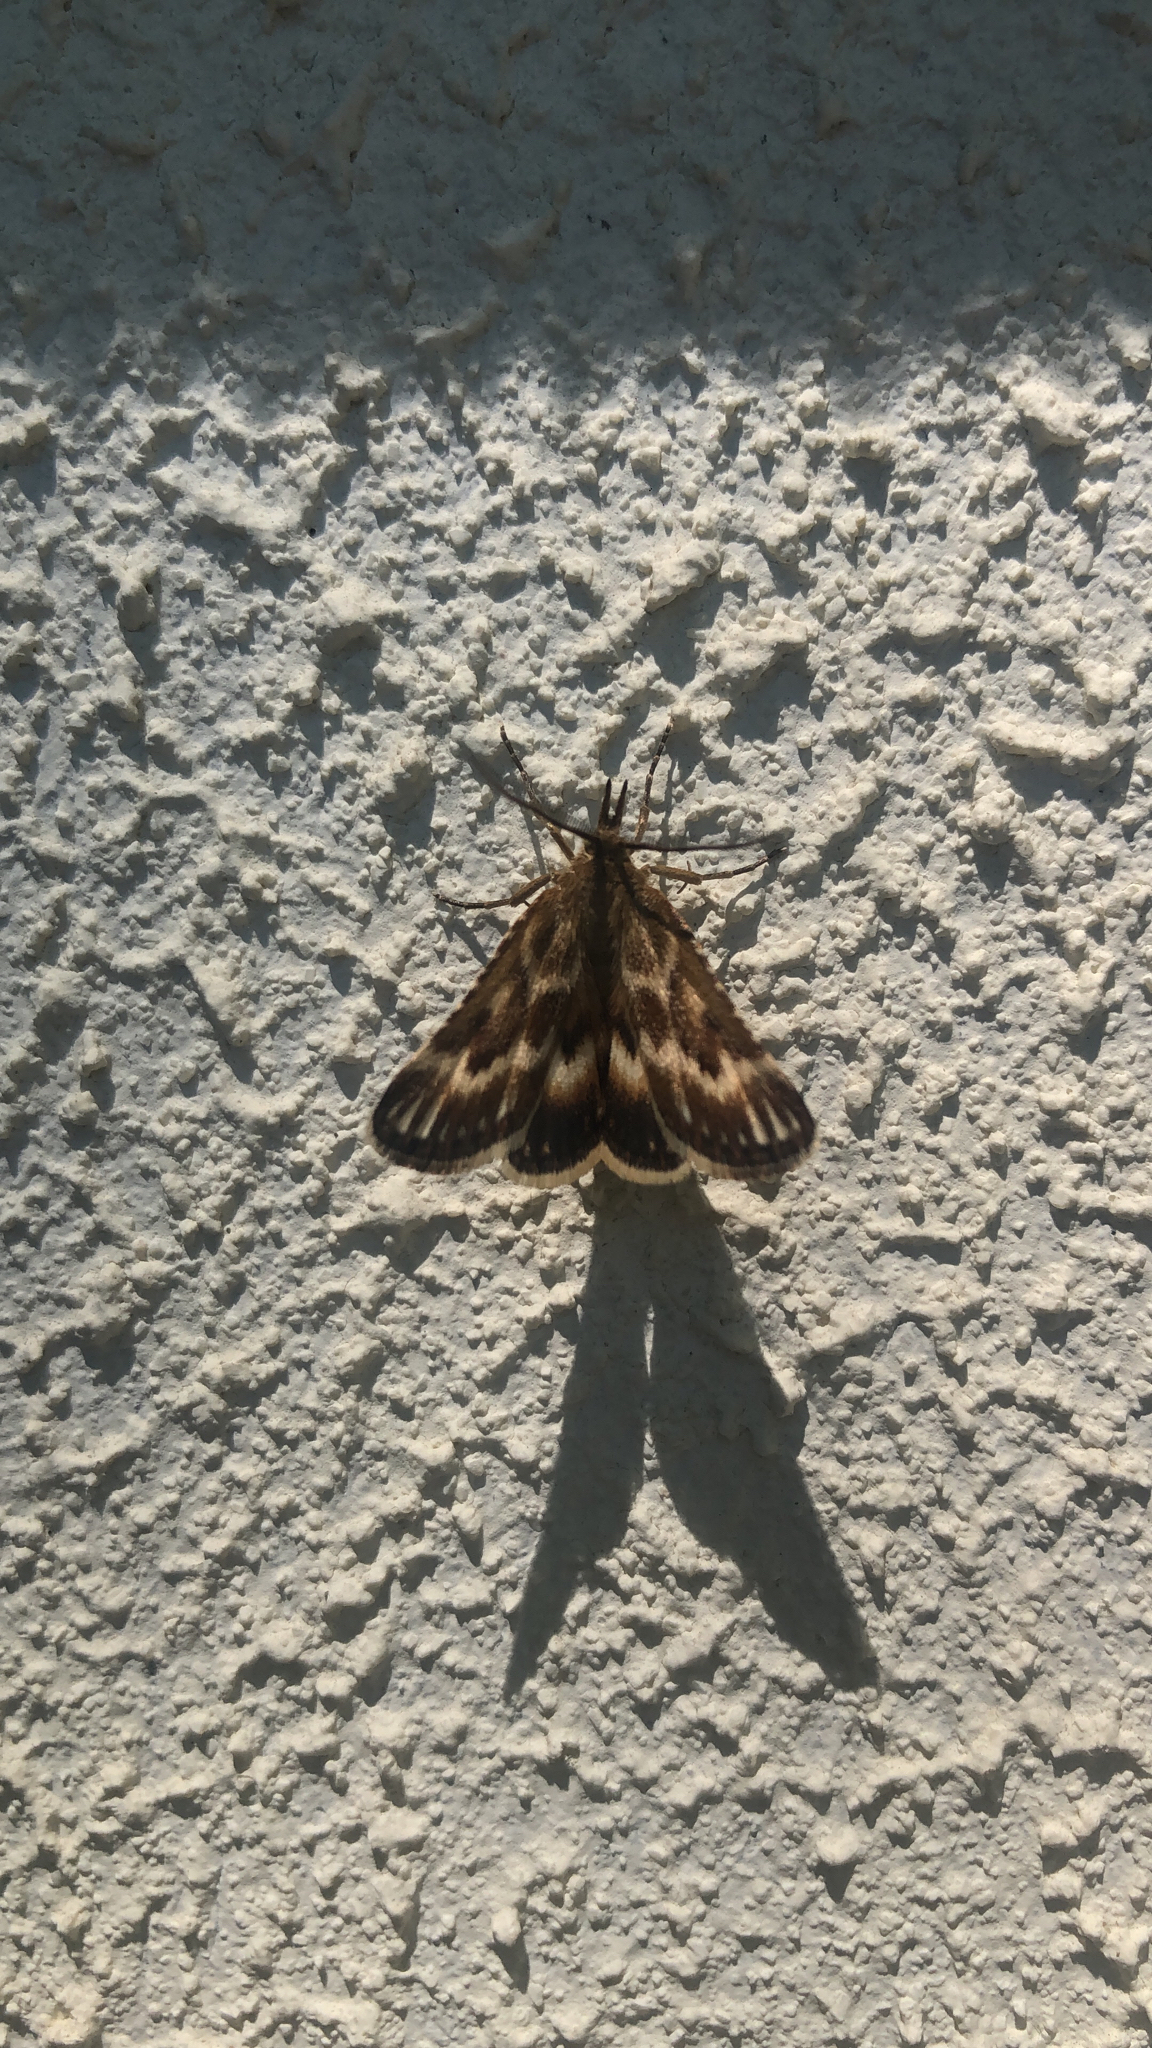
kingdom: Animalia
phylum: Arthropoda
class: Insecta
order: Lepidoptera
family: Pyralidae
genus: Synaphe
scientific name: Synaphe moldavica
